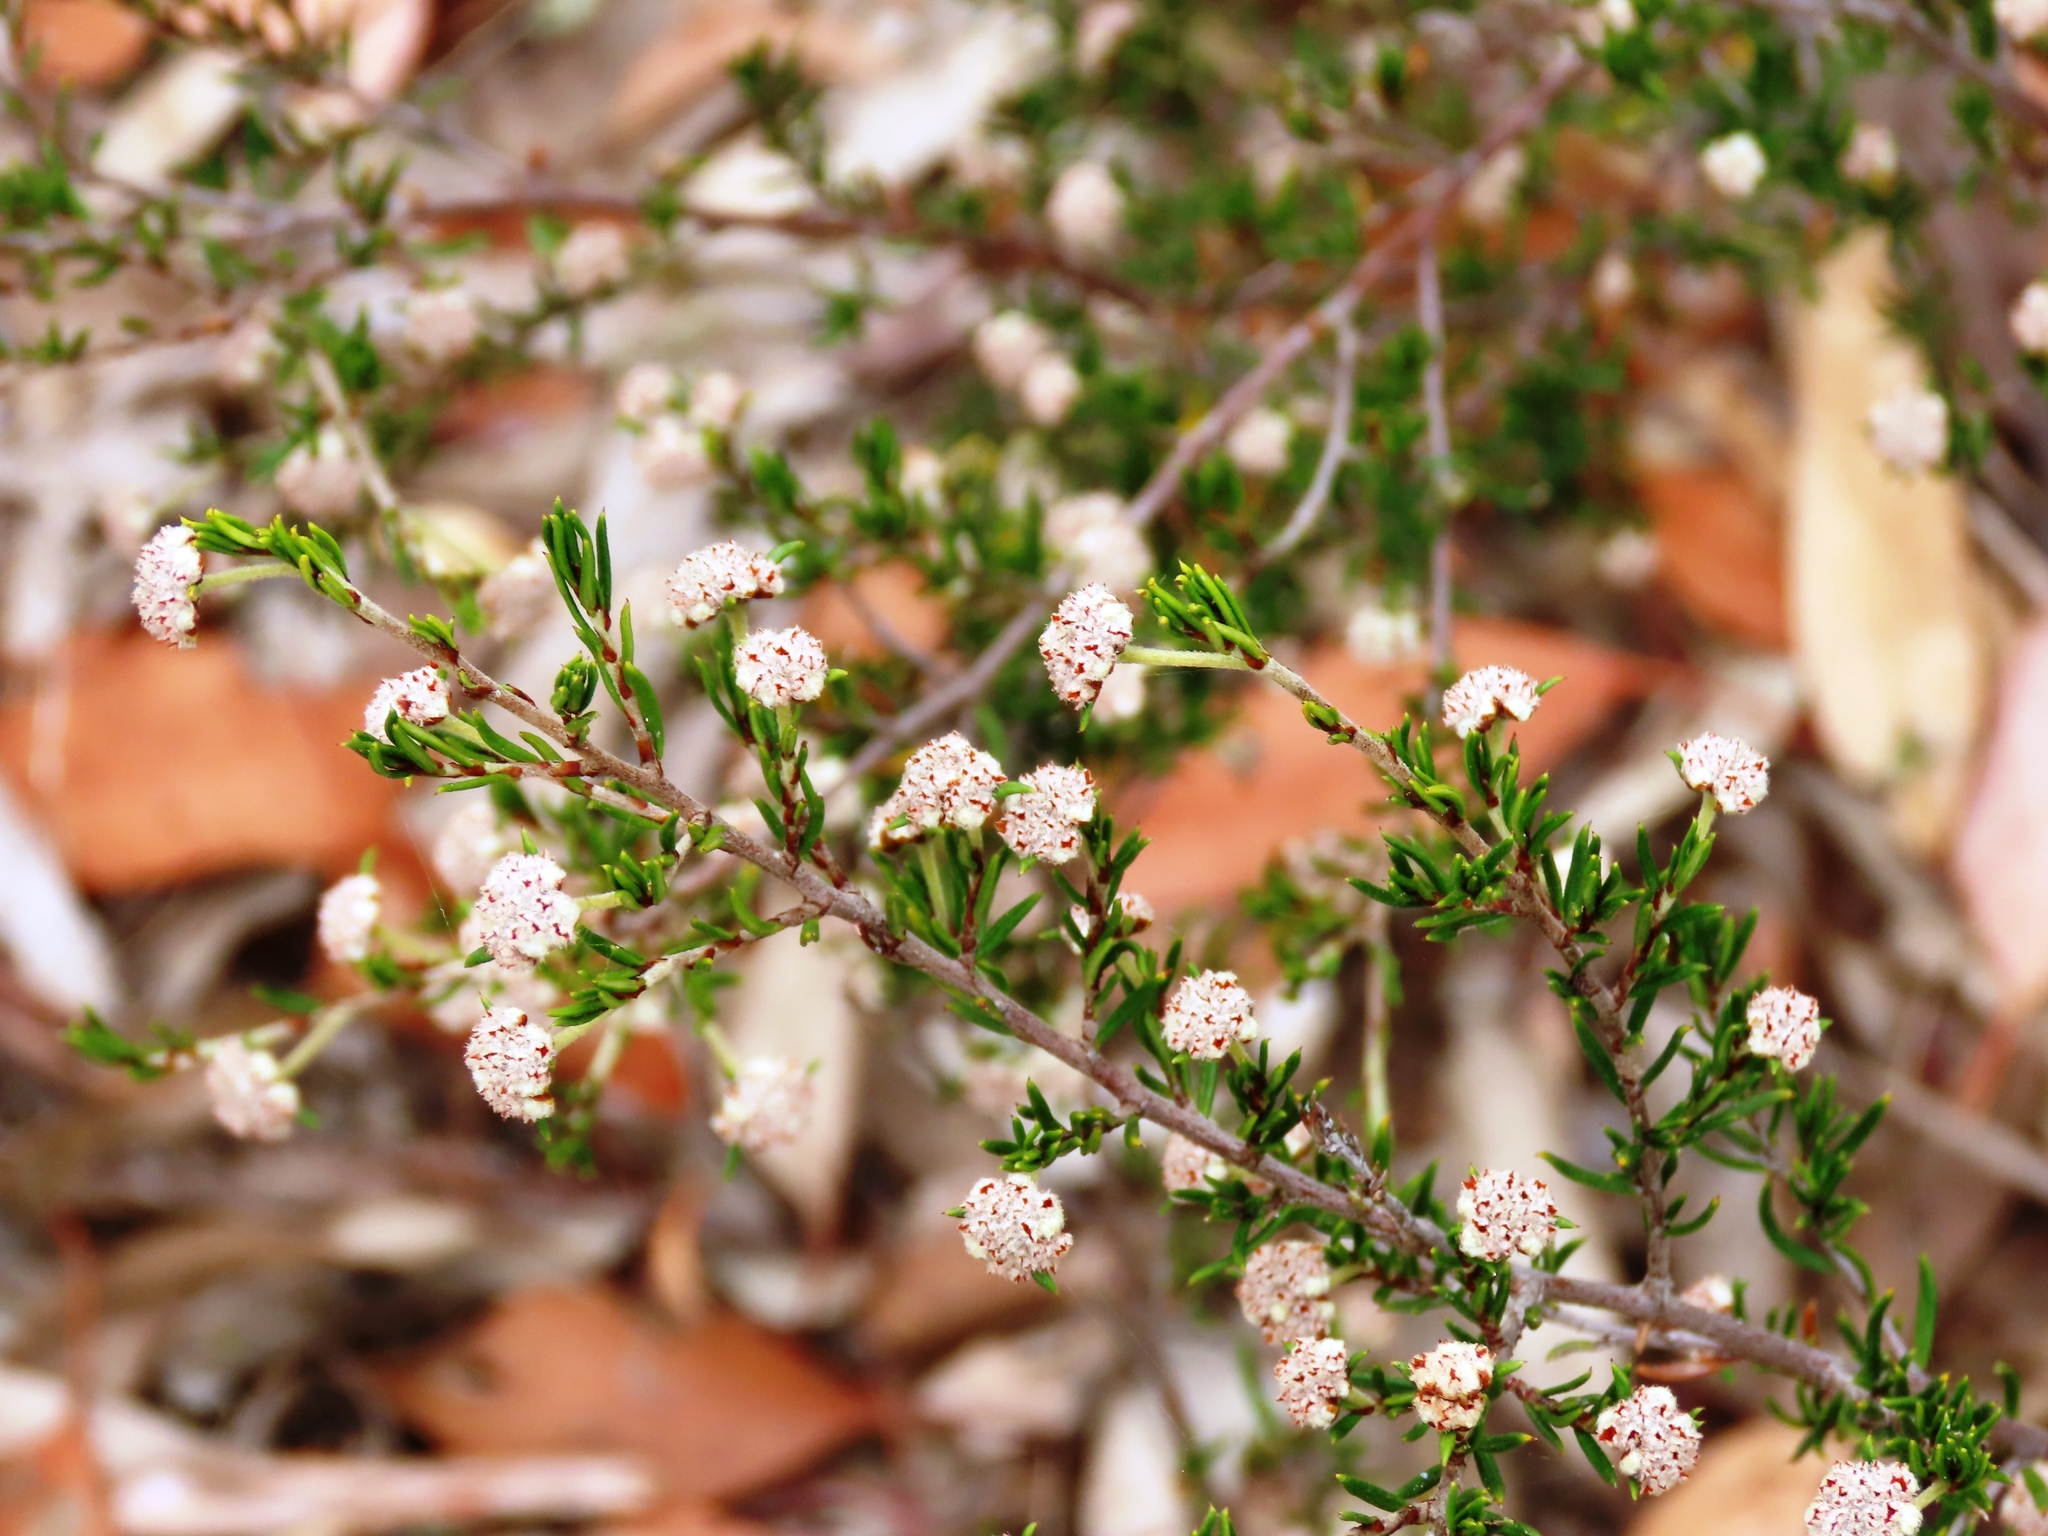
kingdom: Plantae
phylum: Tracheophyta
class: Magnoliopsida
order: Rosales
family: Rhamnaceae
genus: Spyridium
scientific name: Spyridium eriocephalum
